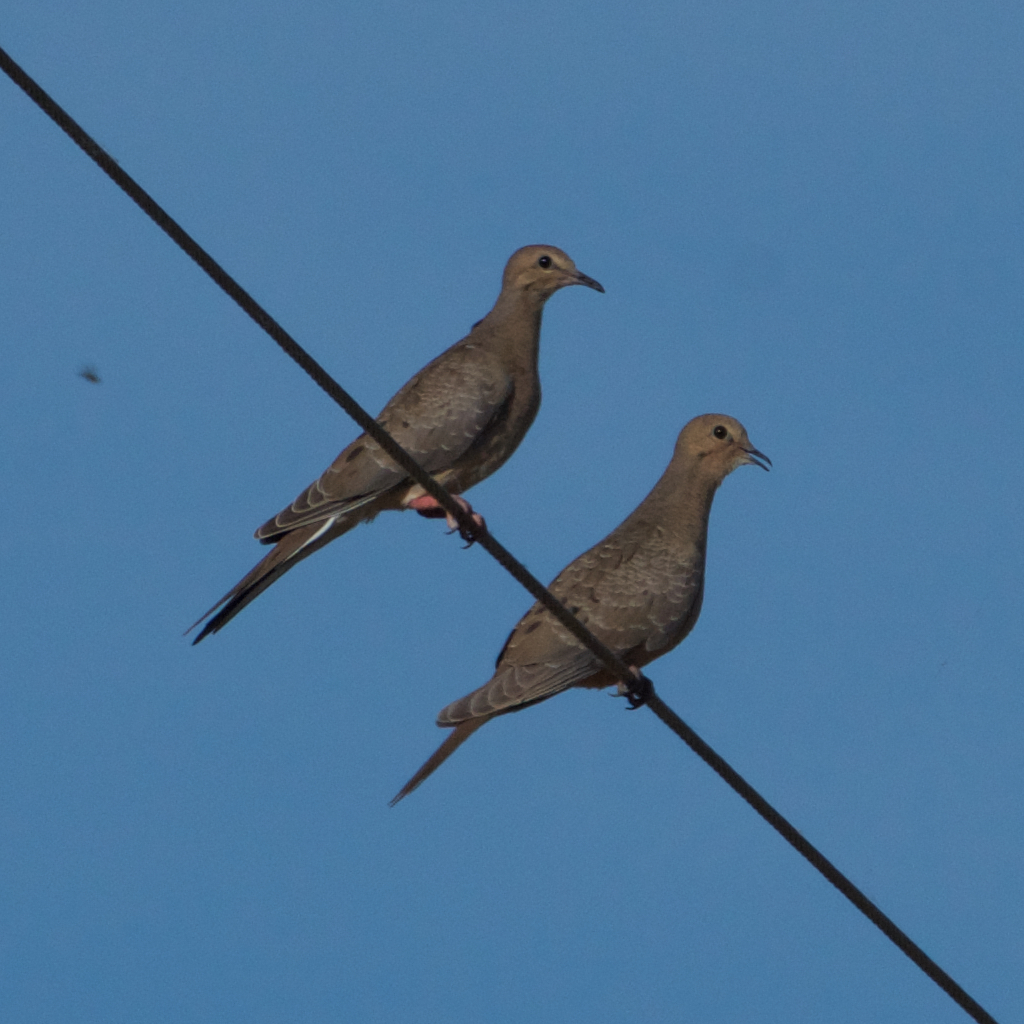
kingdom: Animalia
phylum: Chordata
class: Aves
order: Columbiformes
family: Columbidae
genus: Zenaida
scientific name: Zenaida macroura
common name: Mourning dove
